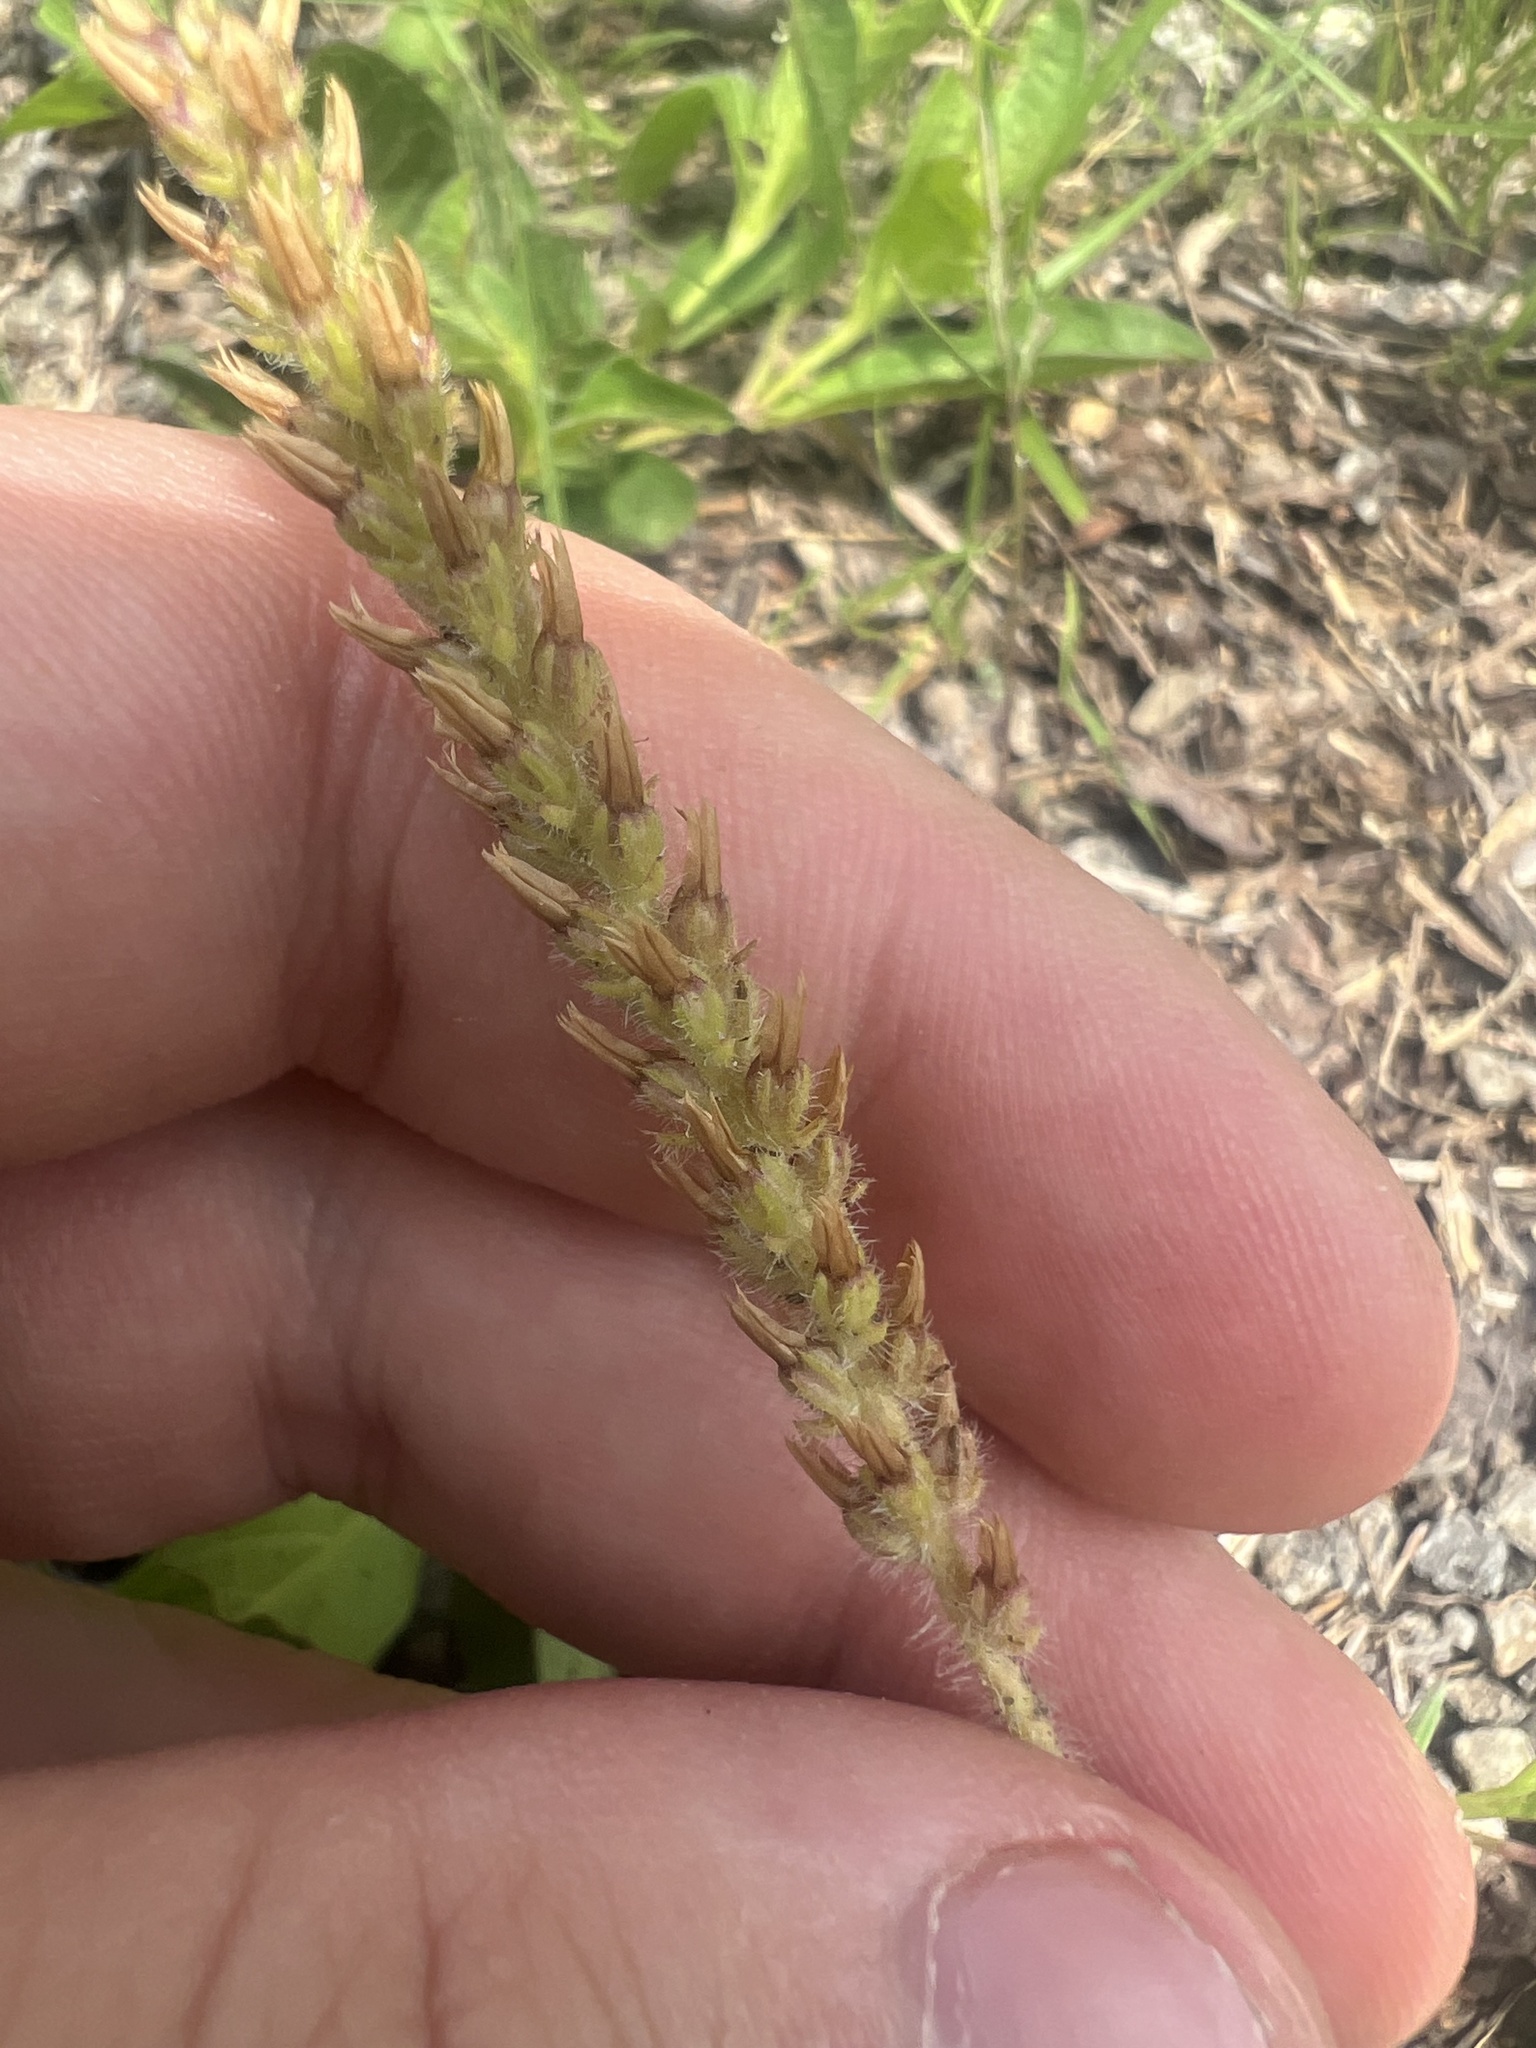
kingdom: Plantae
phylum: Tracheophyta
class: Magnoliopsida
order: Lamiales
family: Plantaginaceae
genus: Plantago
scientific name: Plantago virginica
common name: Hoary plantain
